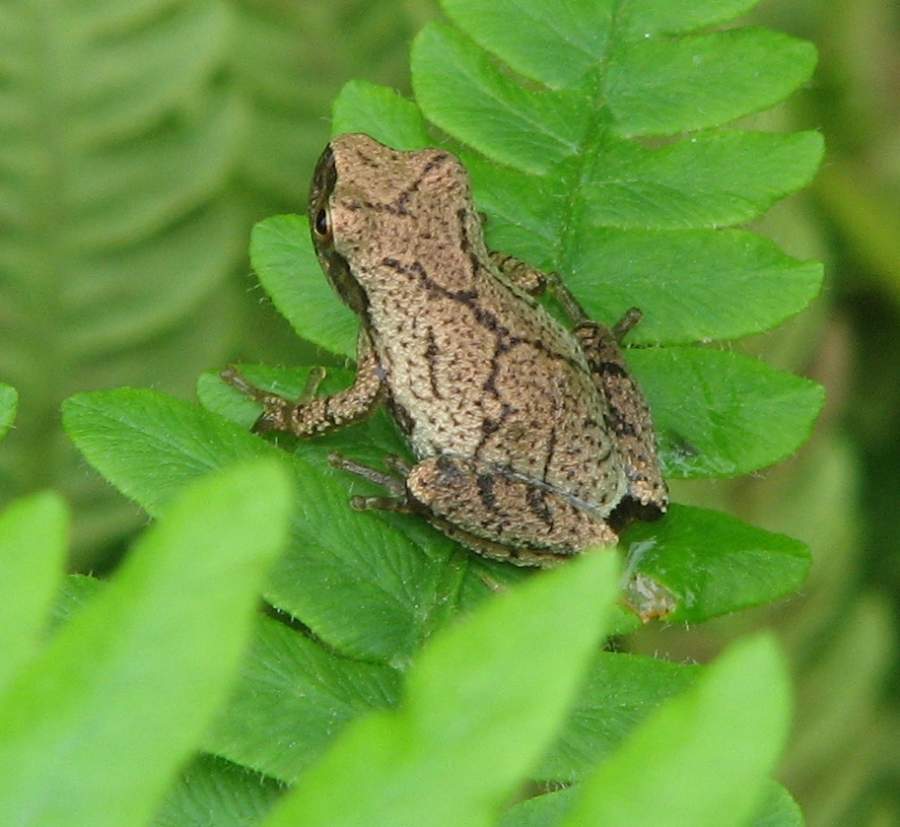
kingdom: Animalia
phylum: Chordata
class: Amphibia
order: Anura
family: Hylidae
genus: Pseudacris
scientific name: Pseudacris crucifer
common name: Spring peeper
